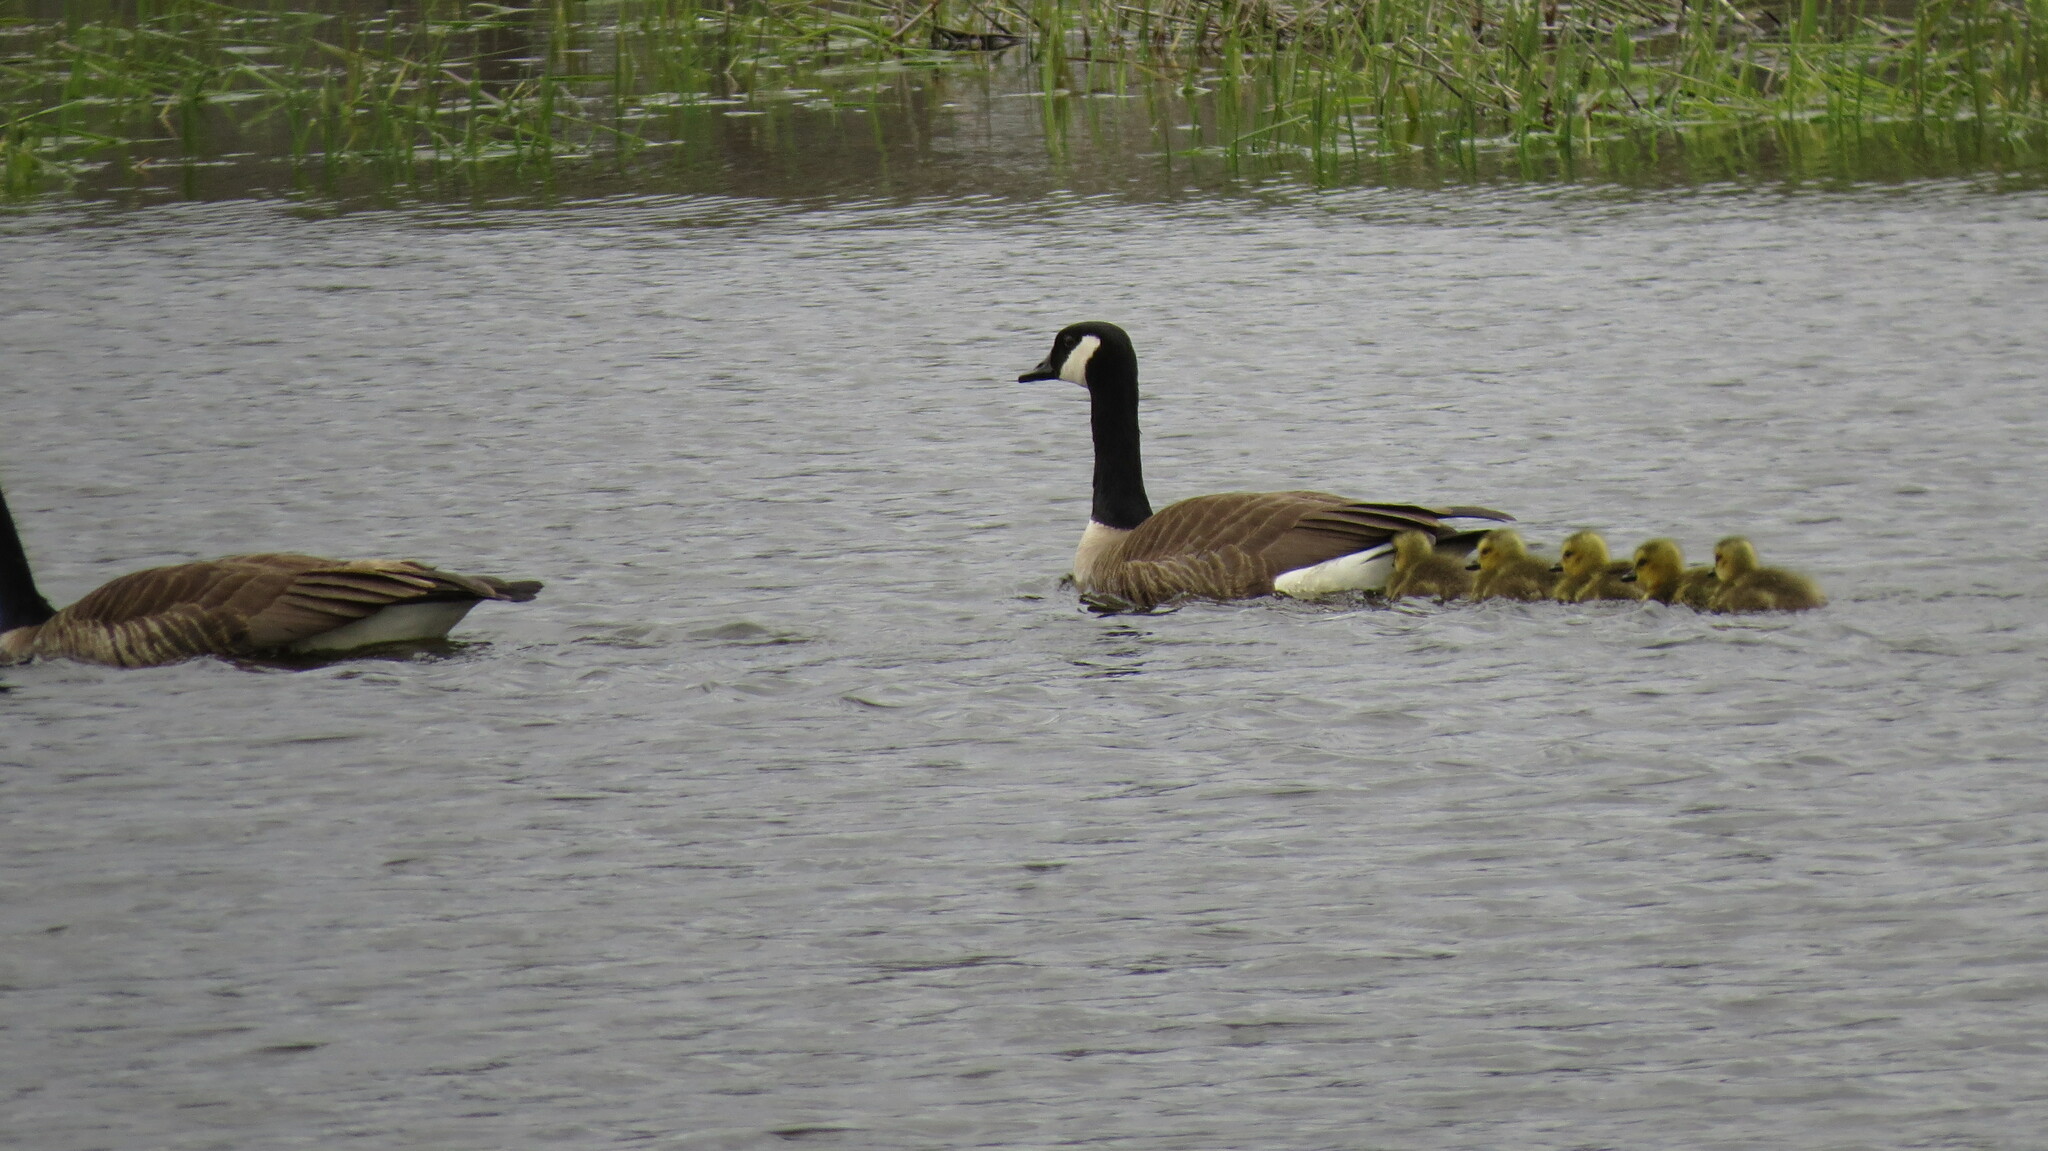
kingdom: Animalia
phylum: Chordata
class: Aves
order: Anseriformes
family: Anatidae
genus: Branta
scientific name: Branta canadensis
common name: Canada goose
